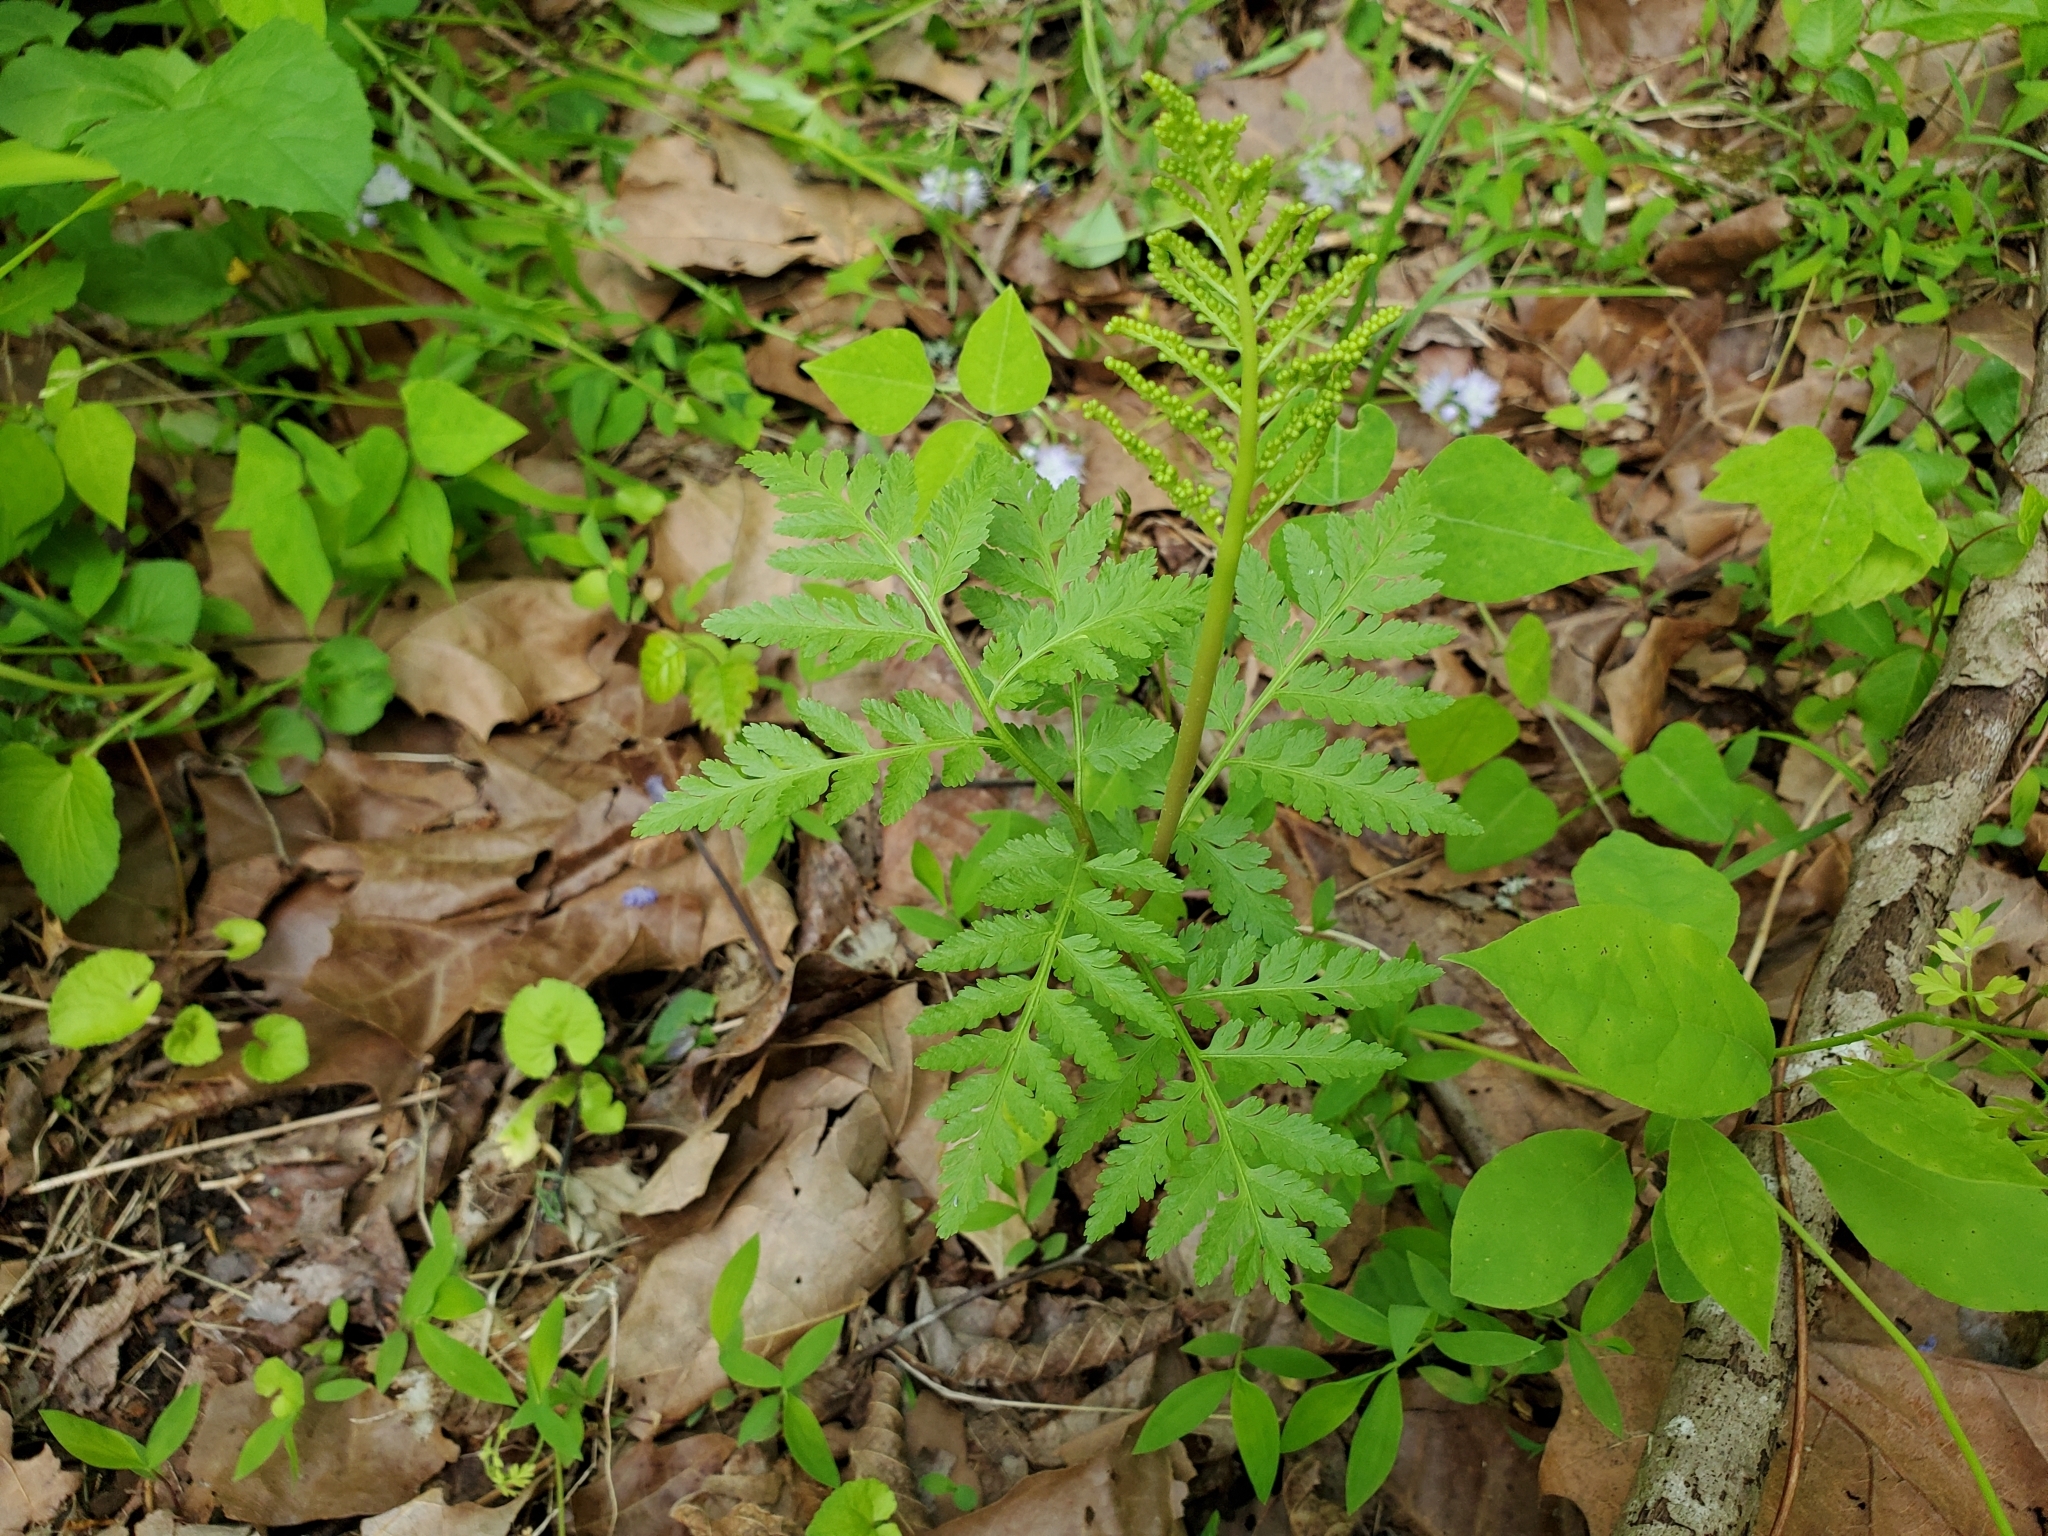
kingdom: Plantae
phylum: Tracheophyta
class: Polypodiopsida
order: Ophioglossales
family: Ophioglossaceae
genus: Botrypus
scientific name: Botrypus virginianus
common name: Common grapefern
